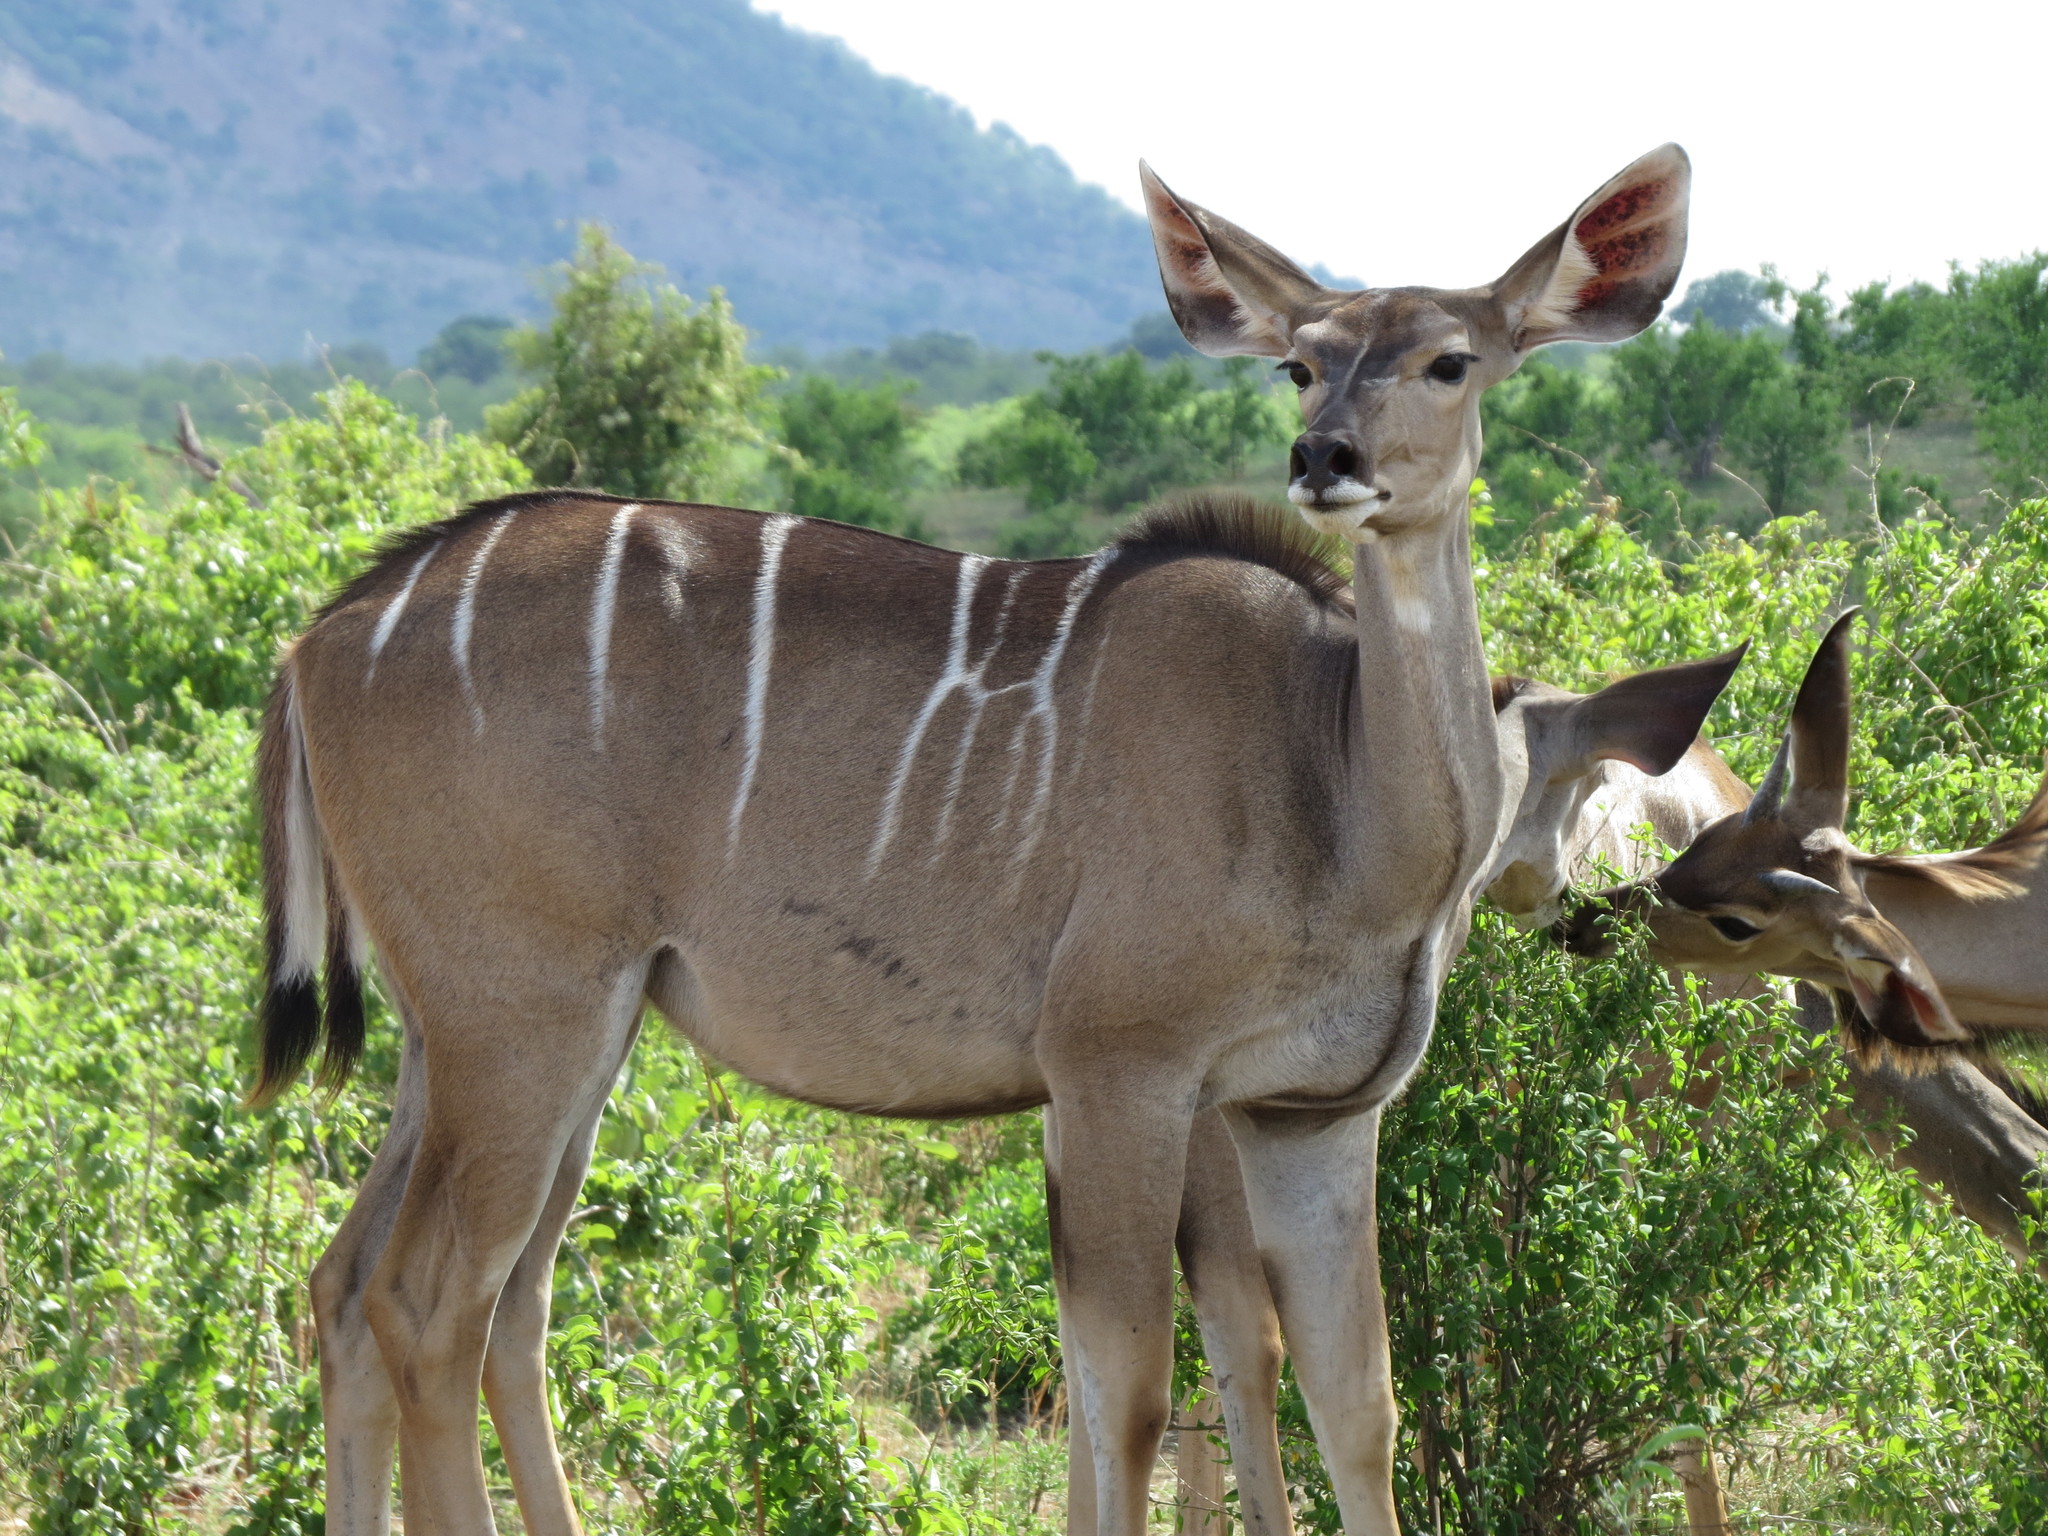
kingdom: Animalia
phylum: Chordata
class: Mammalia
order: Artiodactyla
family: Bovidae
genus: Tragelaphus
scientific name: Tragelaphus strepsiceros
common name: Greater kudu
